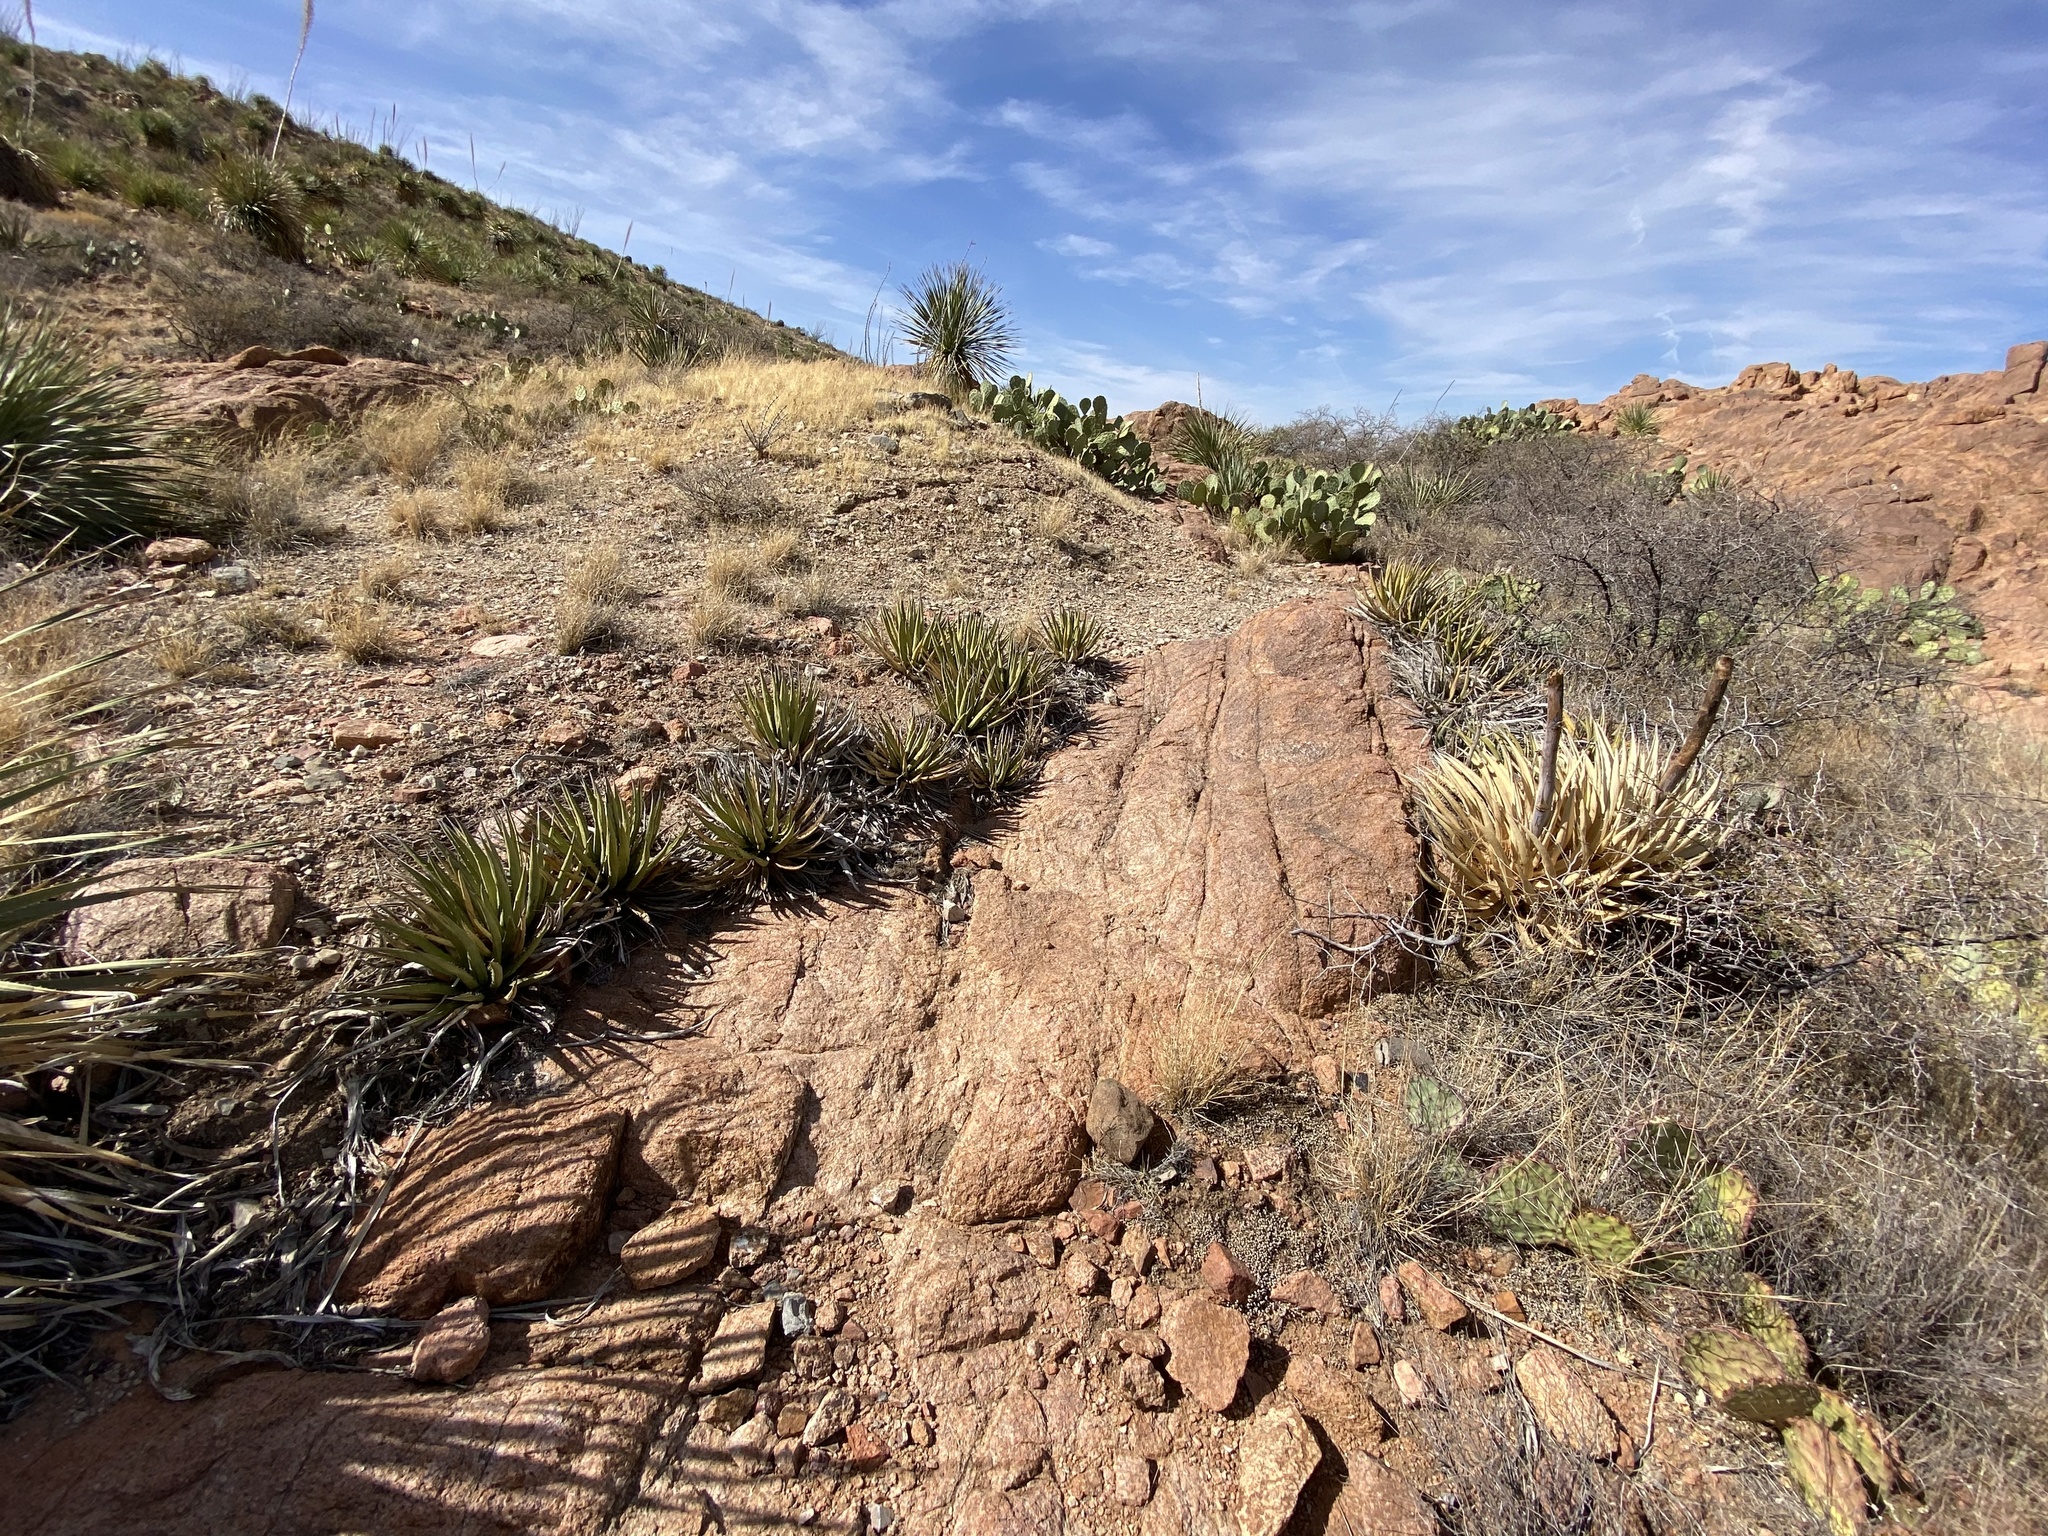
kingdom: Plantae
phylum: Tracheophyta
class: Liliopsida
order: Asparagales
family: Asparagaceae
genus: Agave
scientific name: Agave lechuguilla
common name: Lecheguilla agave
